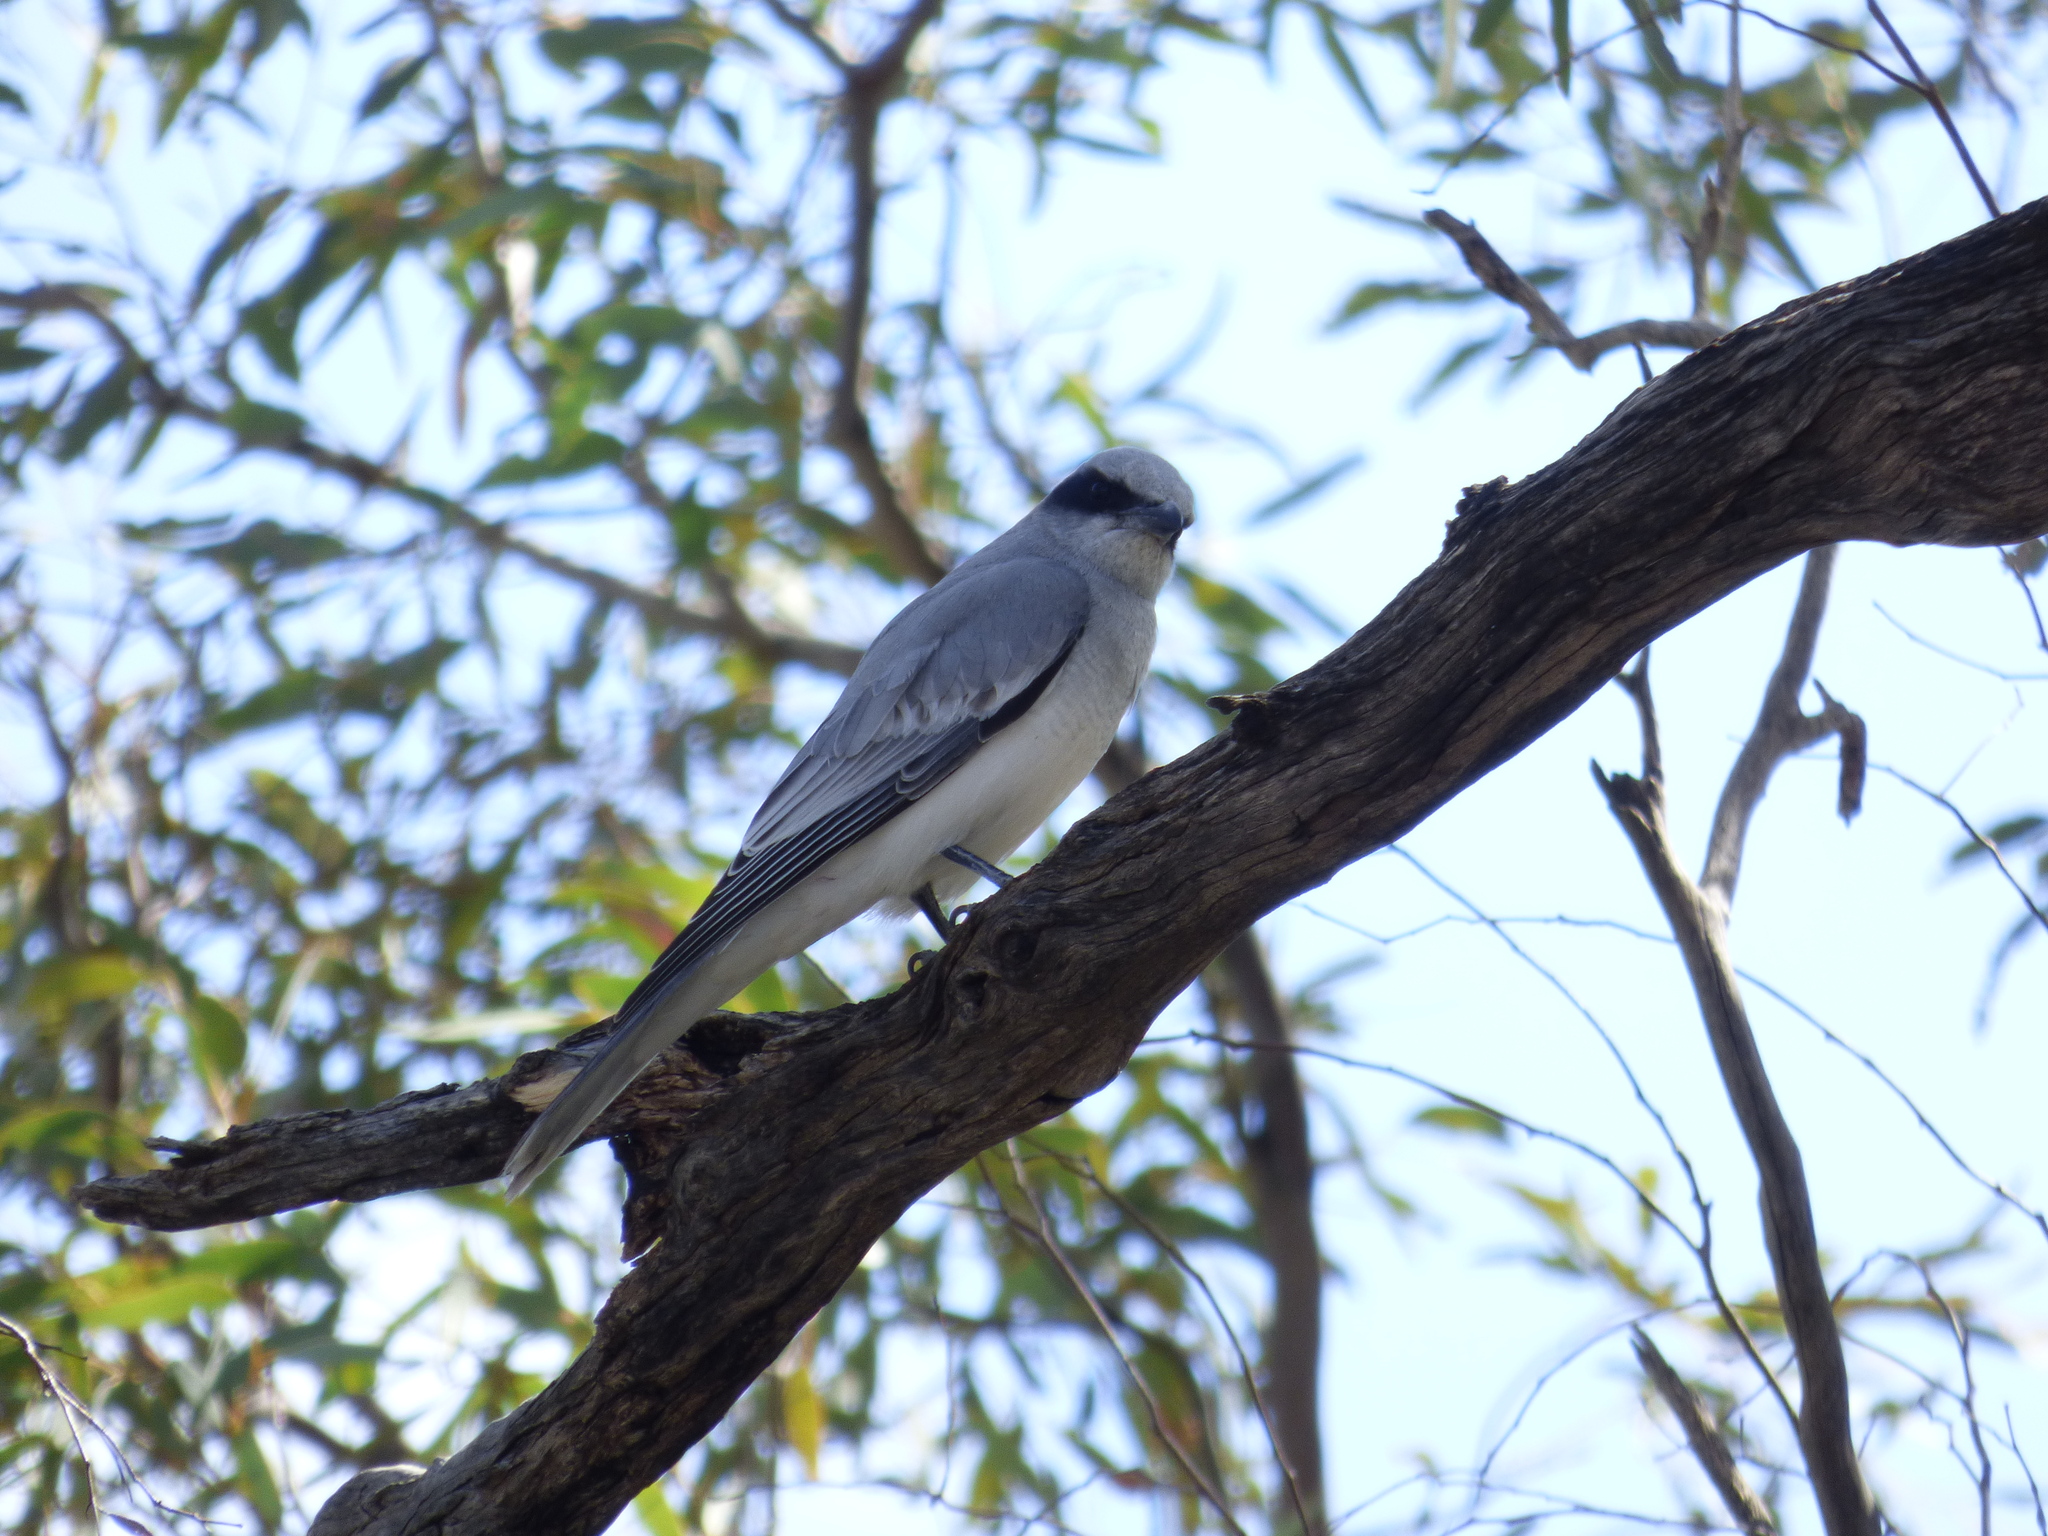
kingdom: Animalia
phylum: Chordata
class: Aves
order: Passeriformes
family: Campephagidae
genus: Coracina
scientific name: Coracina novaehollandiae
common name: Black-faced cuckooshrike
